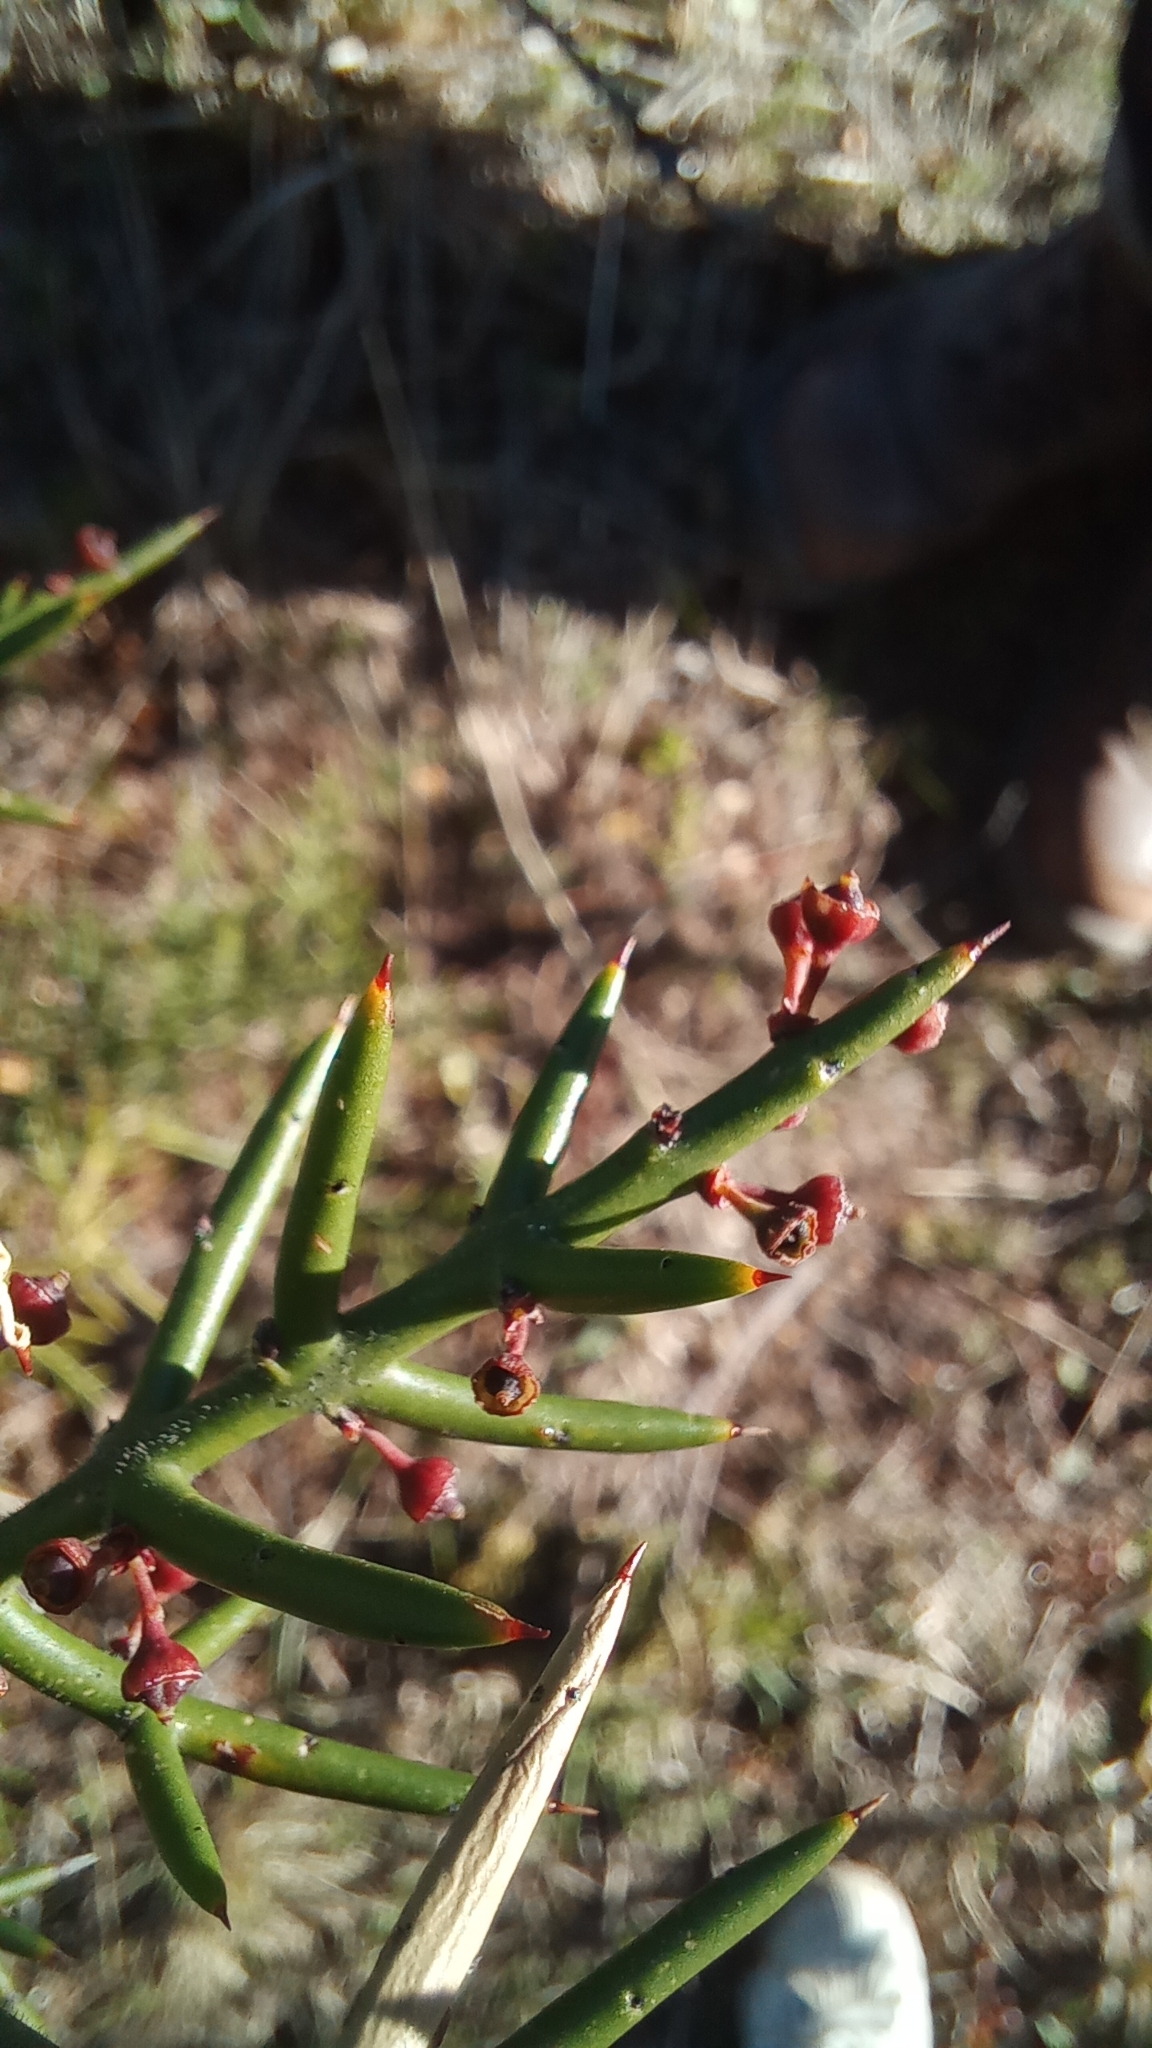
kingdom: Plantae
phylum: Tracheophyta
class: Magnoliopsida
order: Rosales
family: Rhamnaceae
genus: Colletia
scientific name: Colletia hystrix
